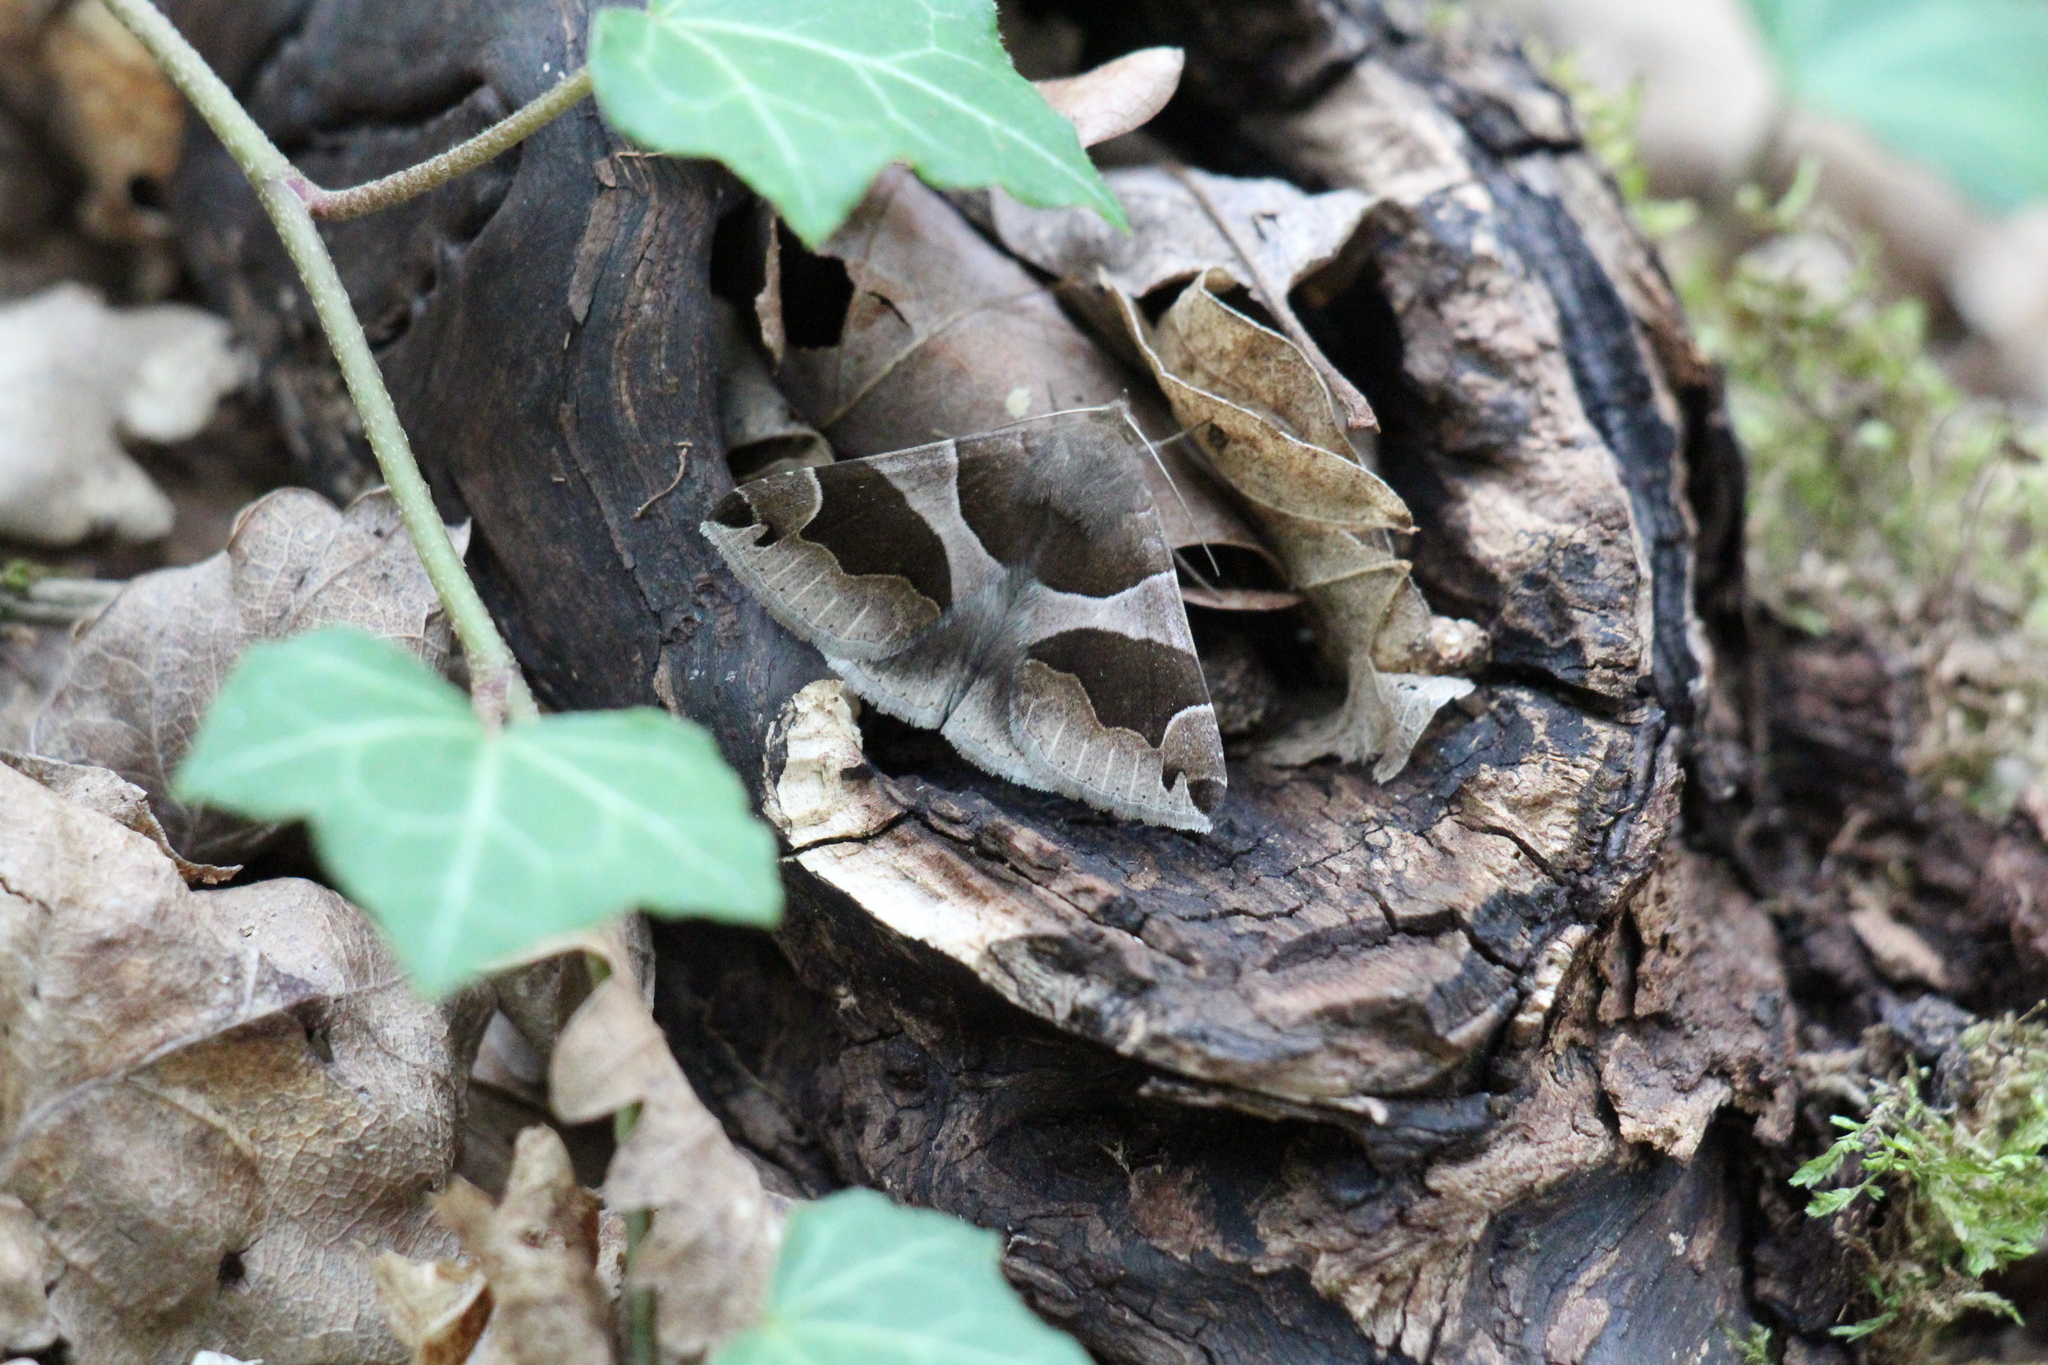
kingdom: Animalia
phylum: Arthropoda
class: Insecta
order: Lepidoptera
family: Erebidae
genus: Dysgonia
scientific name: Dysgonia algira
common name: Passenger
